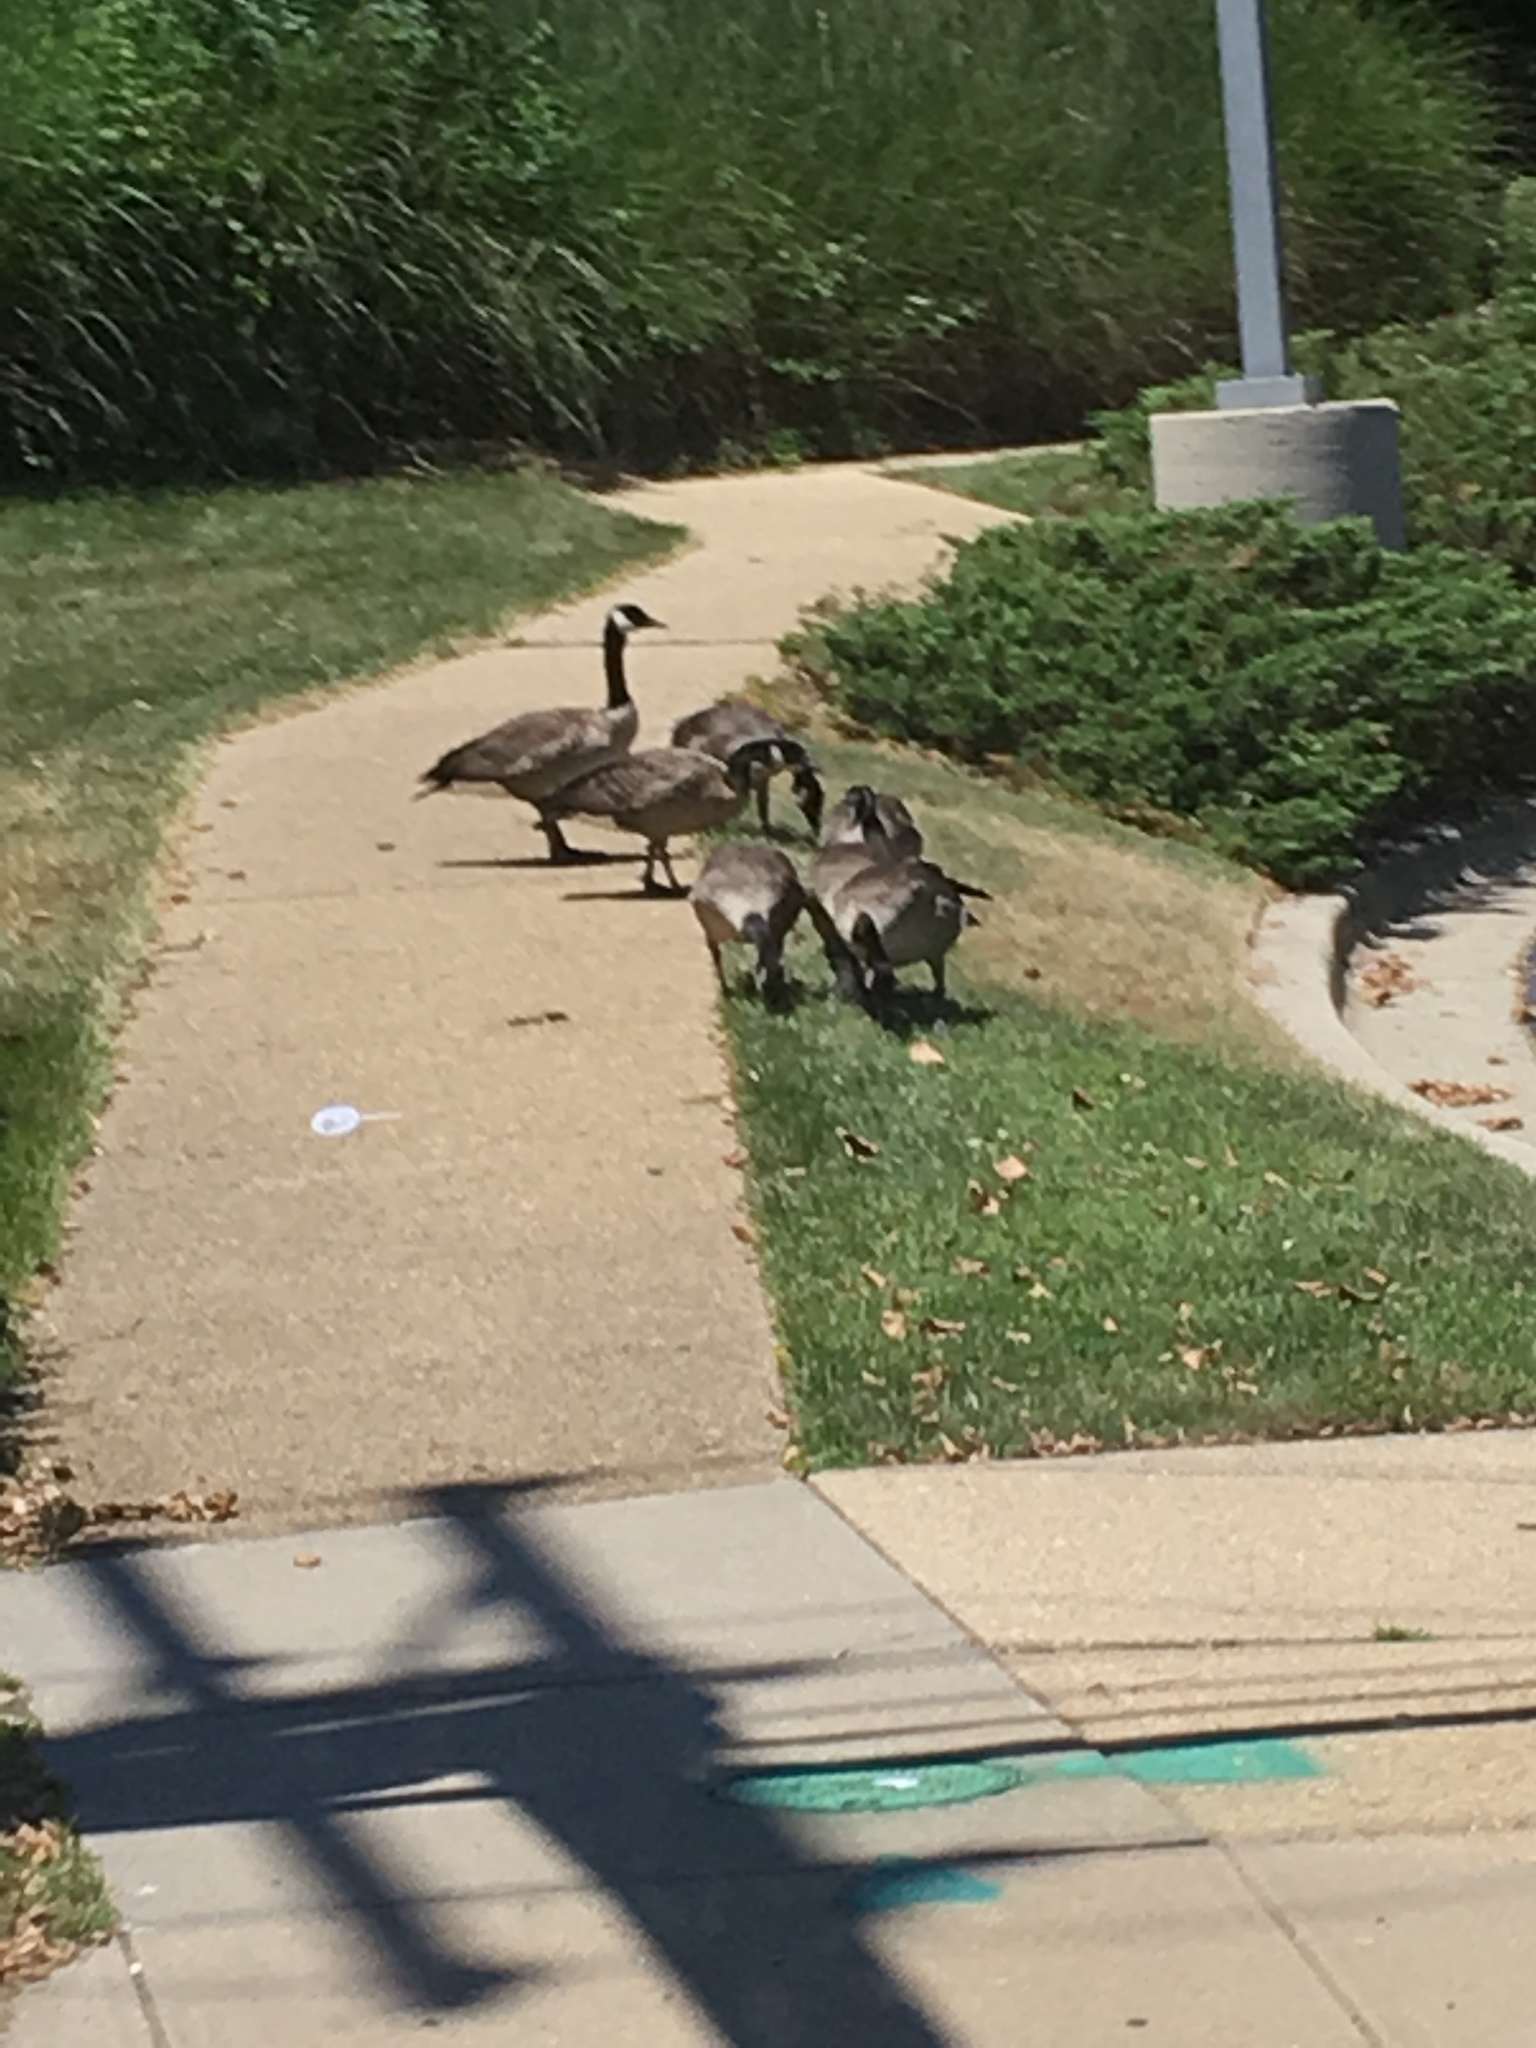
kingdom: Animalia
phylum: Chordata
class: Aves
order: Anseriformes
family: Anatidae
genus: Branta
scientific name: Branta canadensis
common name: Canada goose
